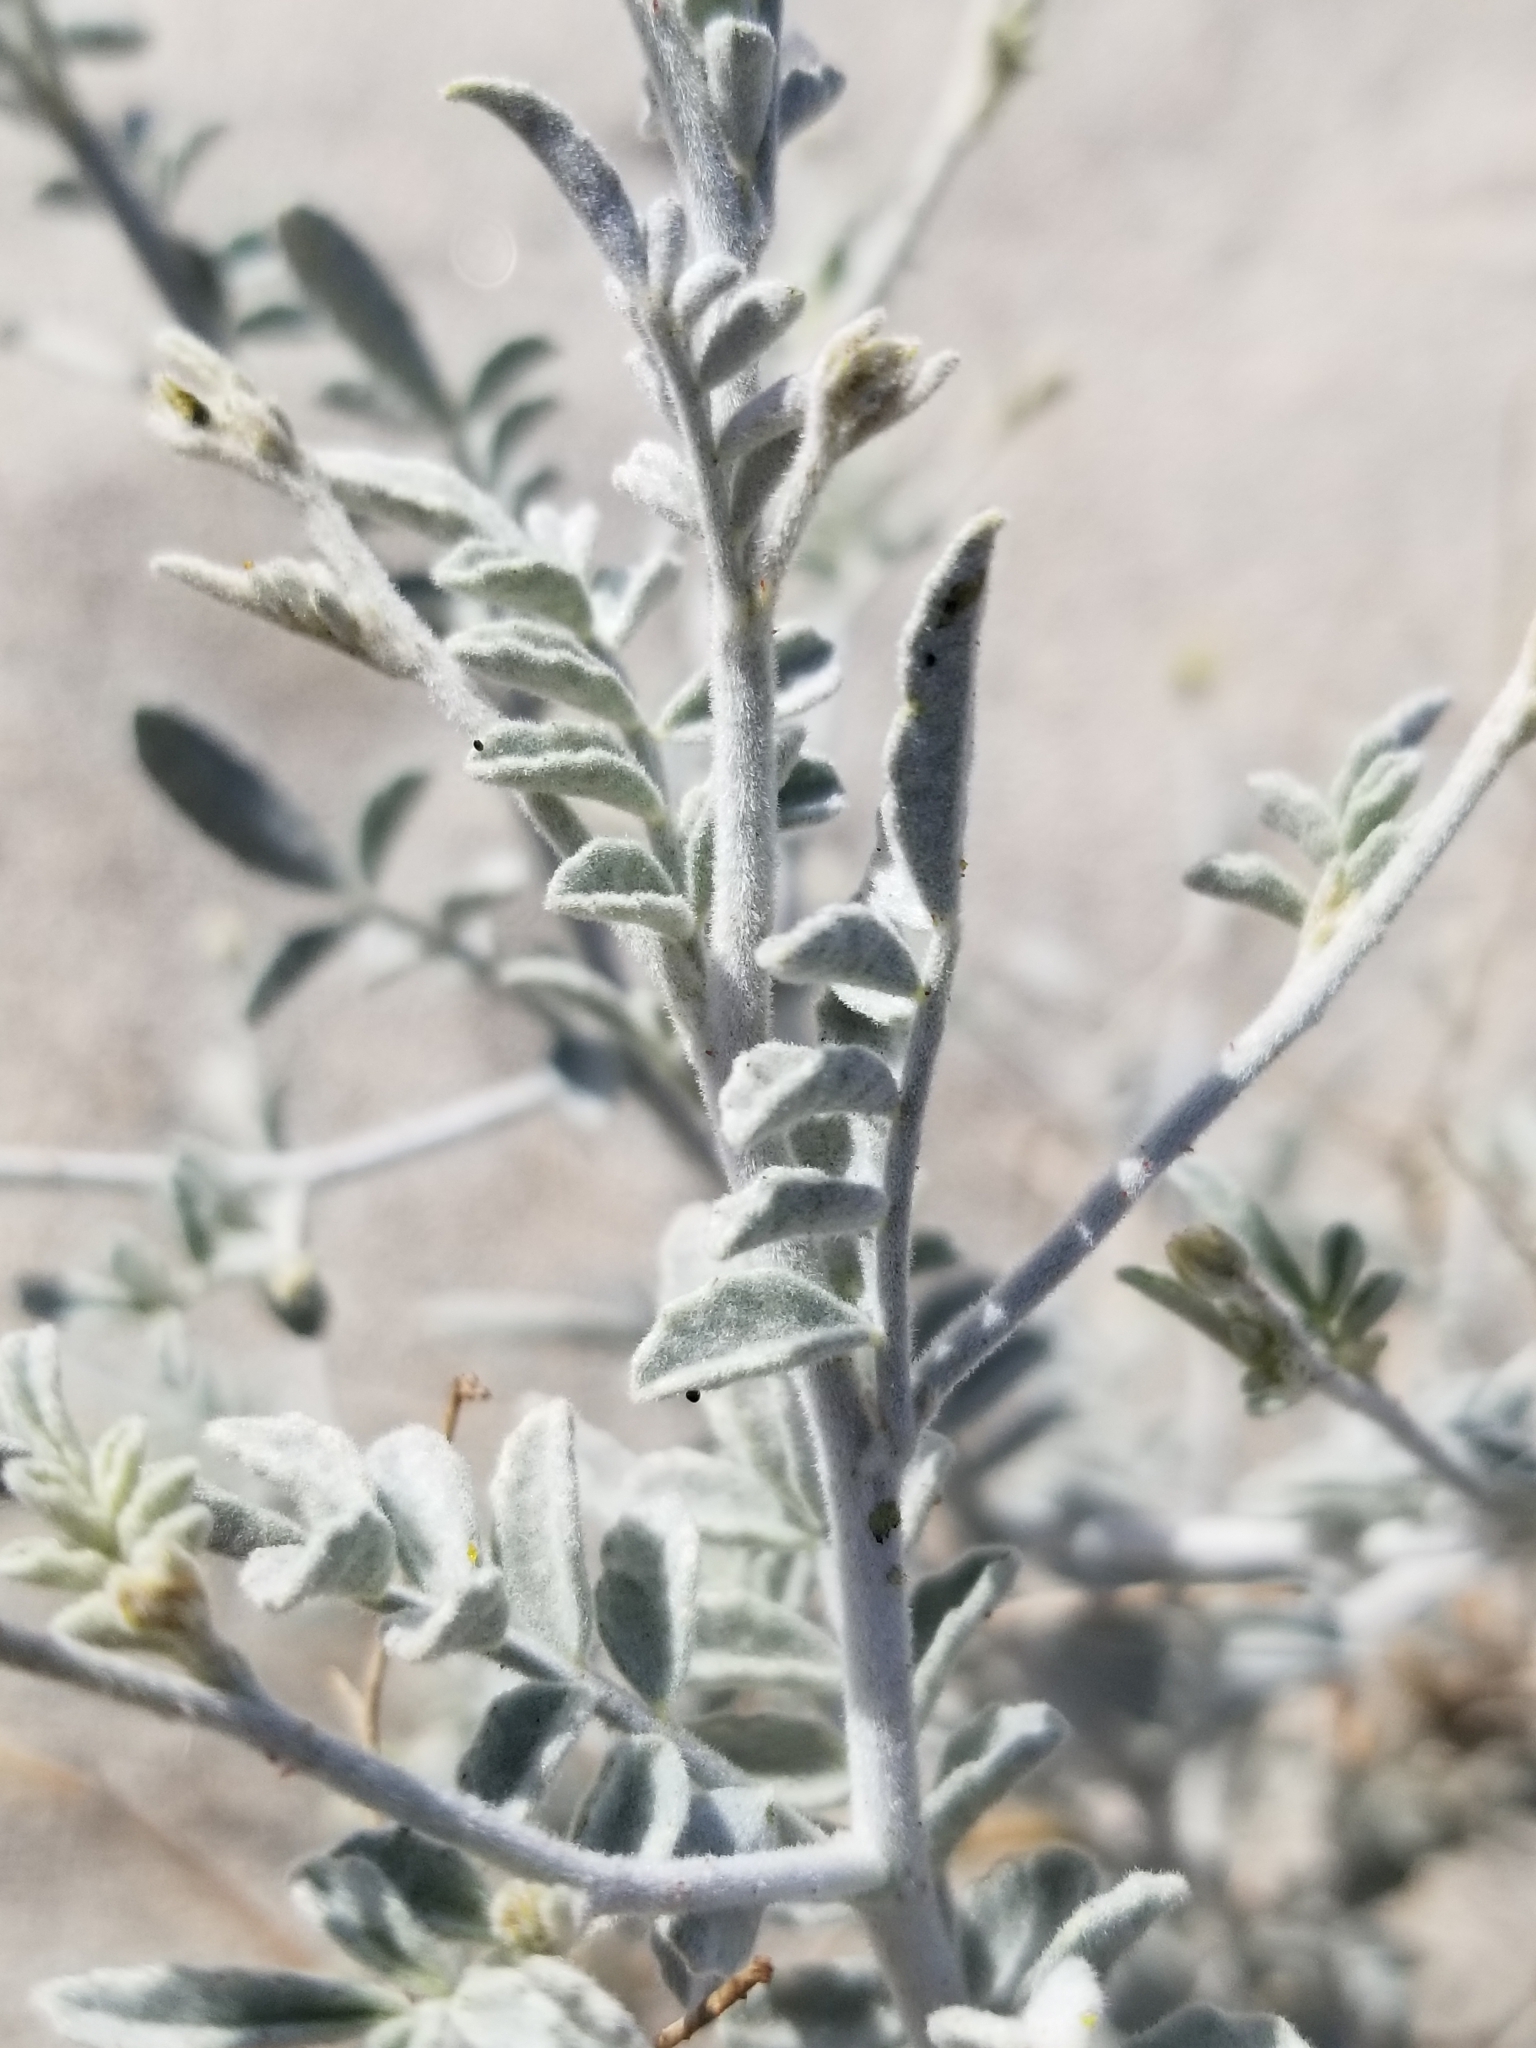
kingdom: Plantae
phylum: Tracheophyta
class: Magnoliopsida
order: Fabales
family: Fabaceae
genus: Astragalus
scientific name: Astragalus lentiginosus
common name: Freckled milkvetch
